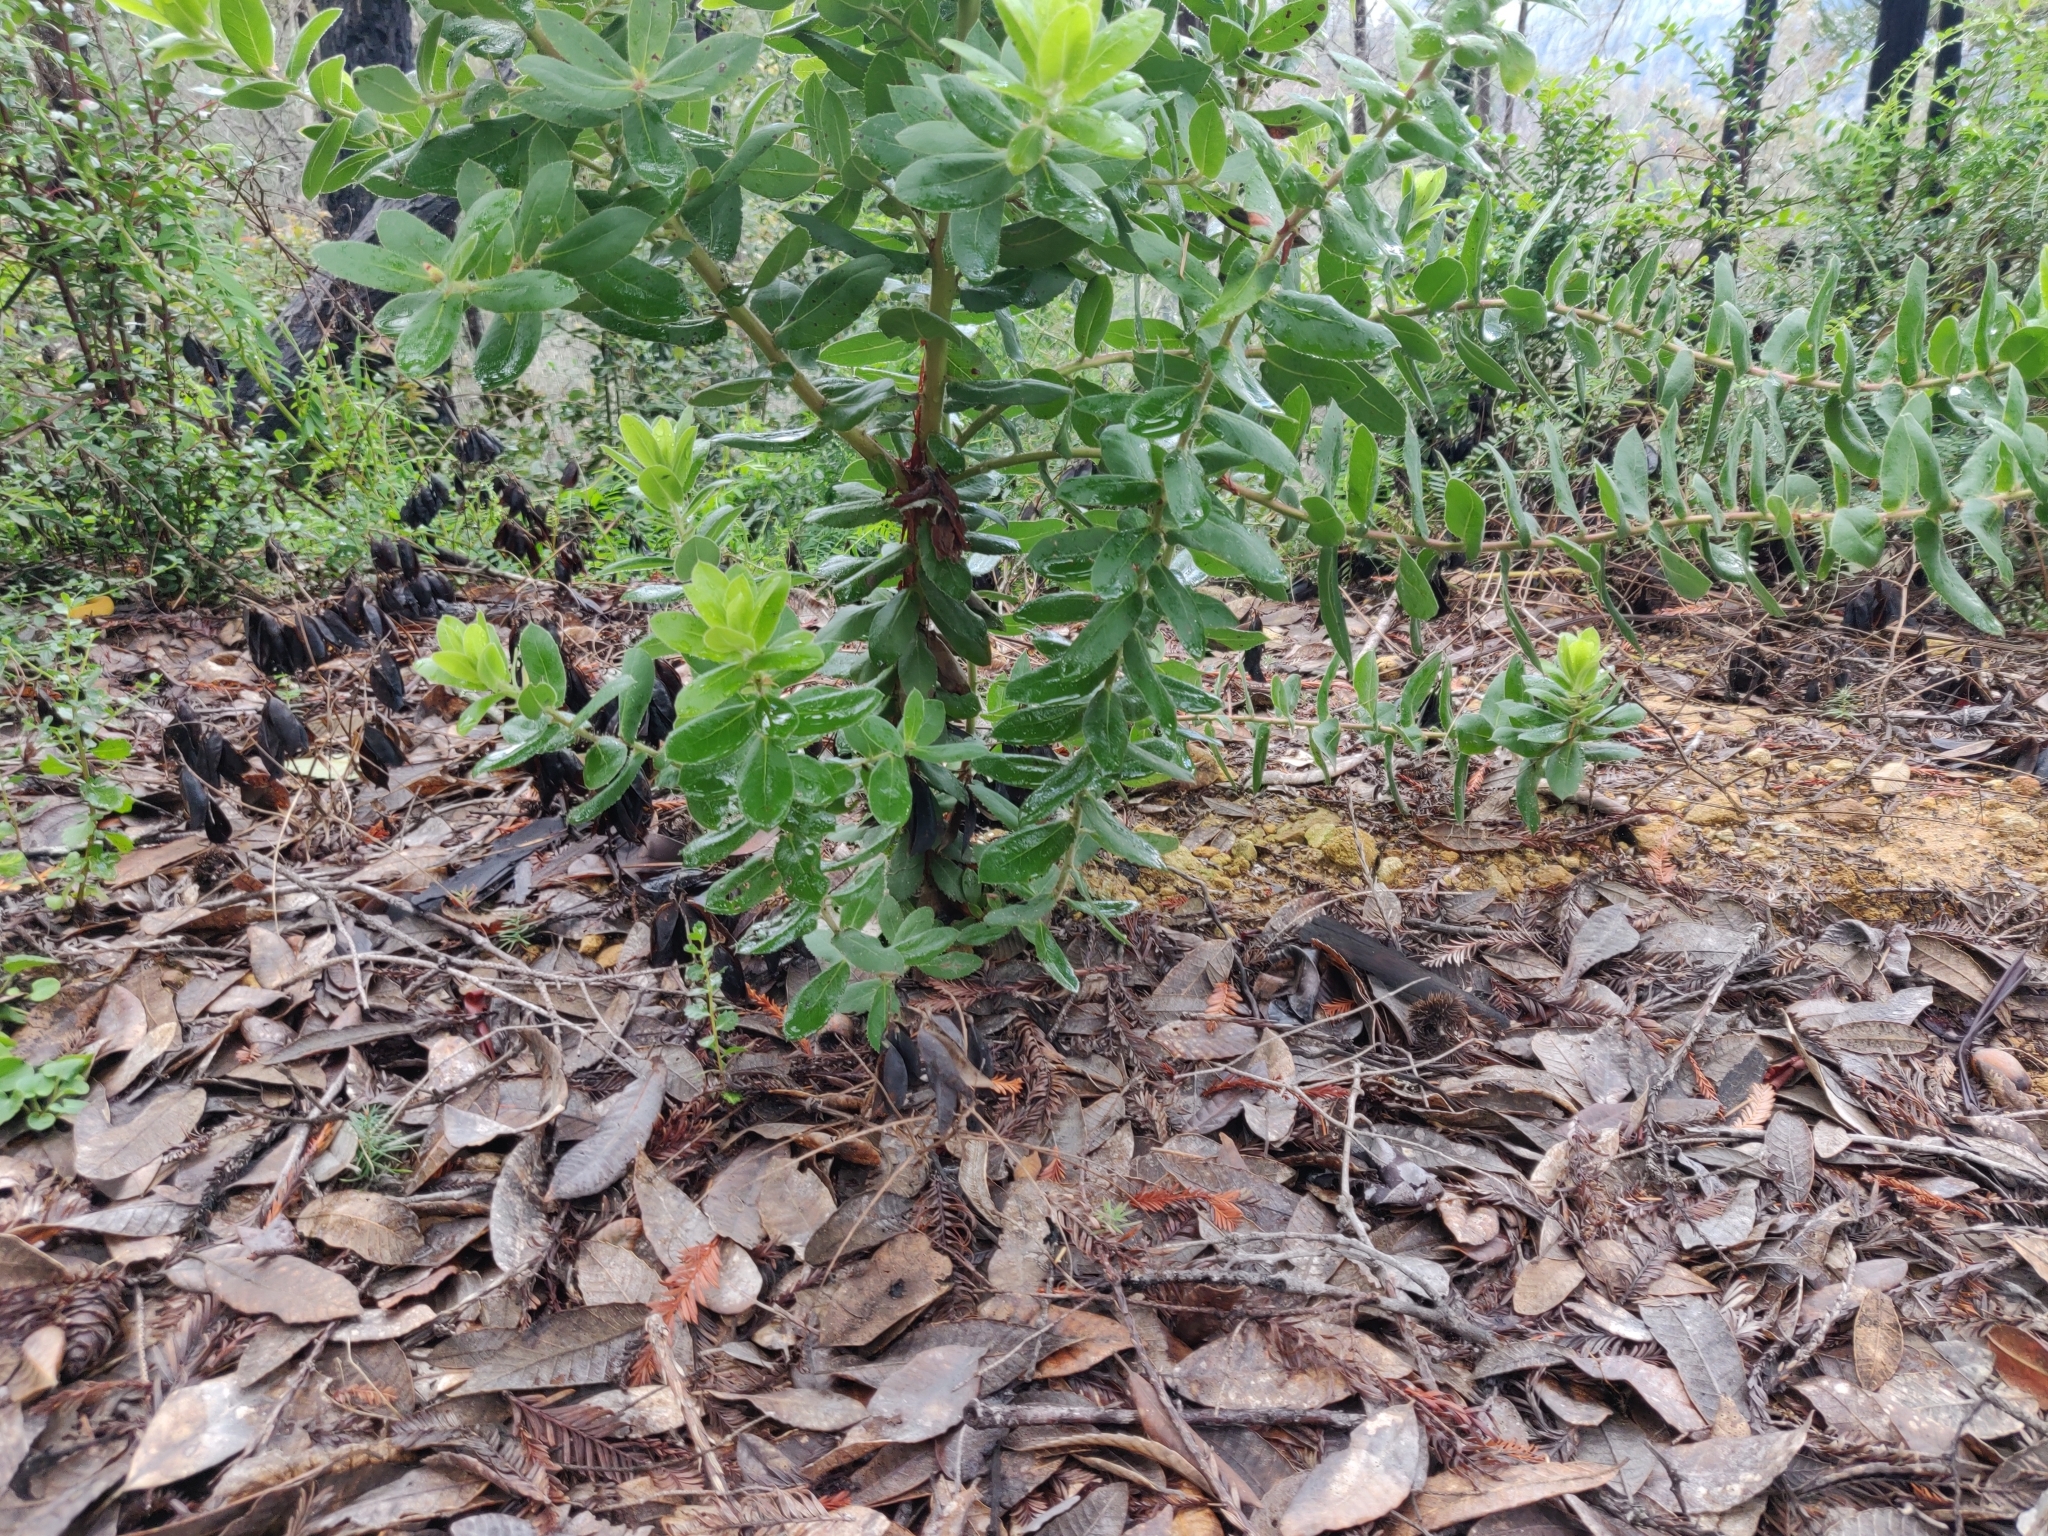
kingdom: Plantae
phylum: Tracheophyta
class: Magnoliopsida
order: Ericales
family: Ericaceae
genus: Arctostaphylos
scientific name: Arctostaphylos andersonii
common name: Santa cruz manzanita
